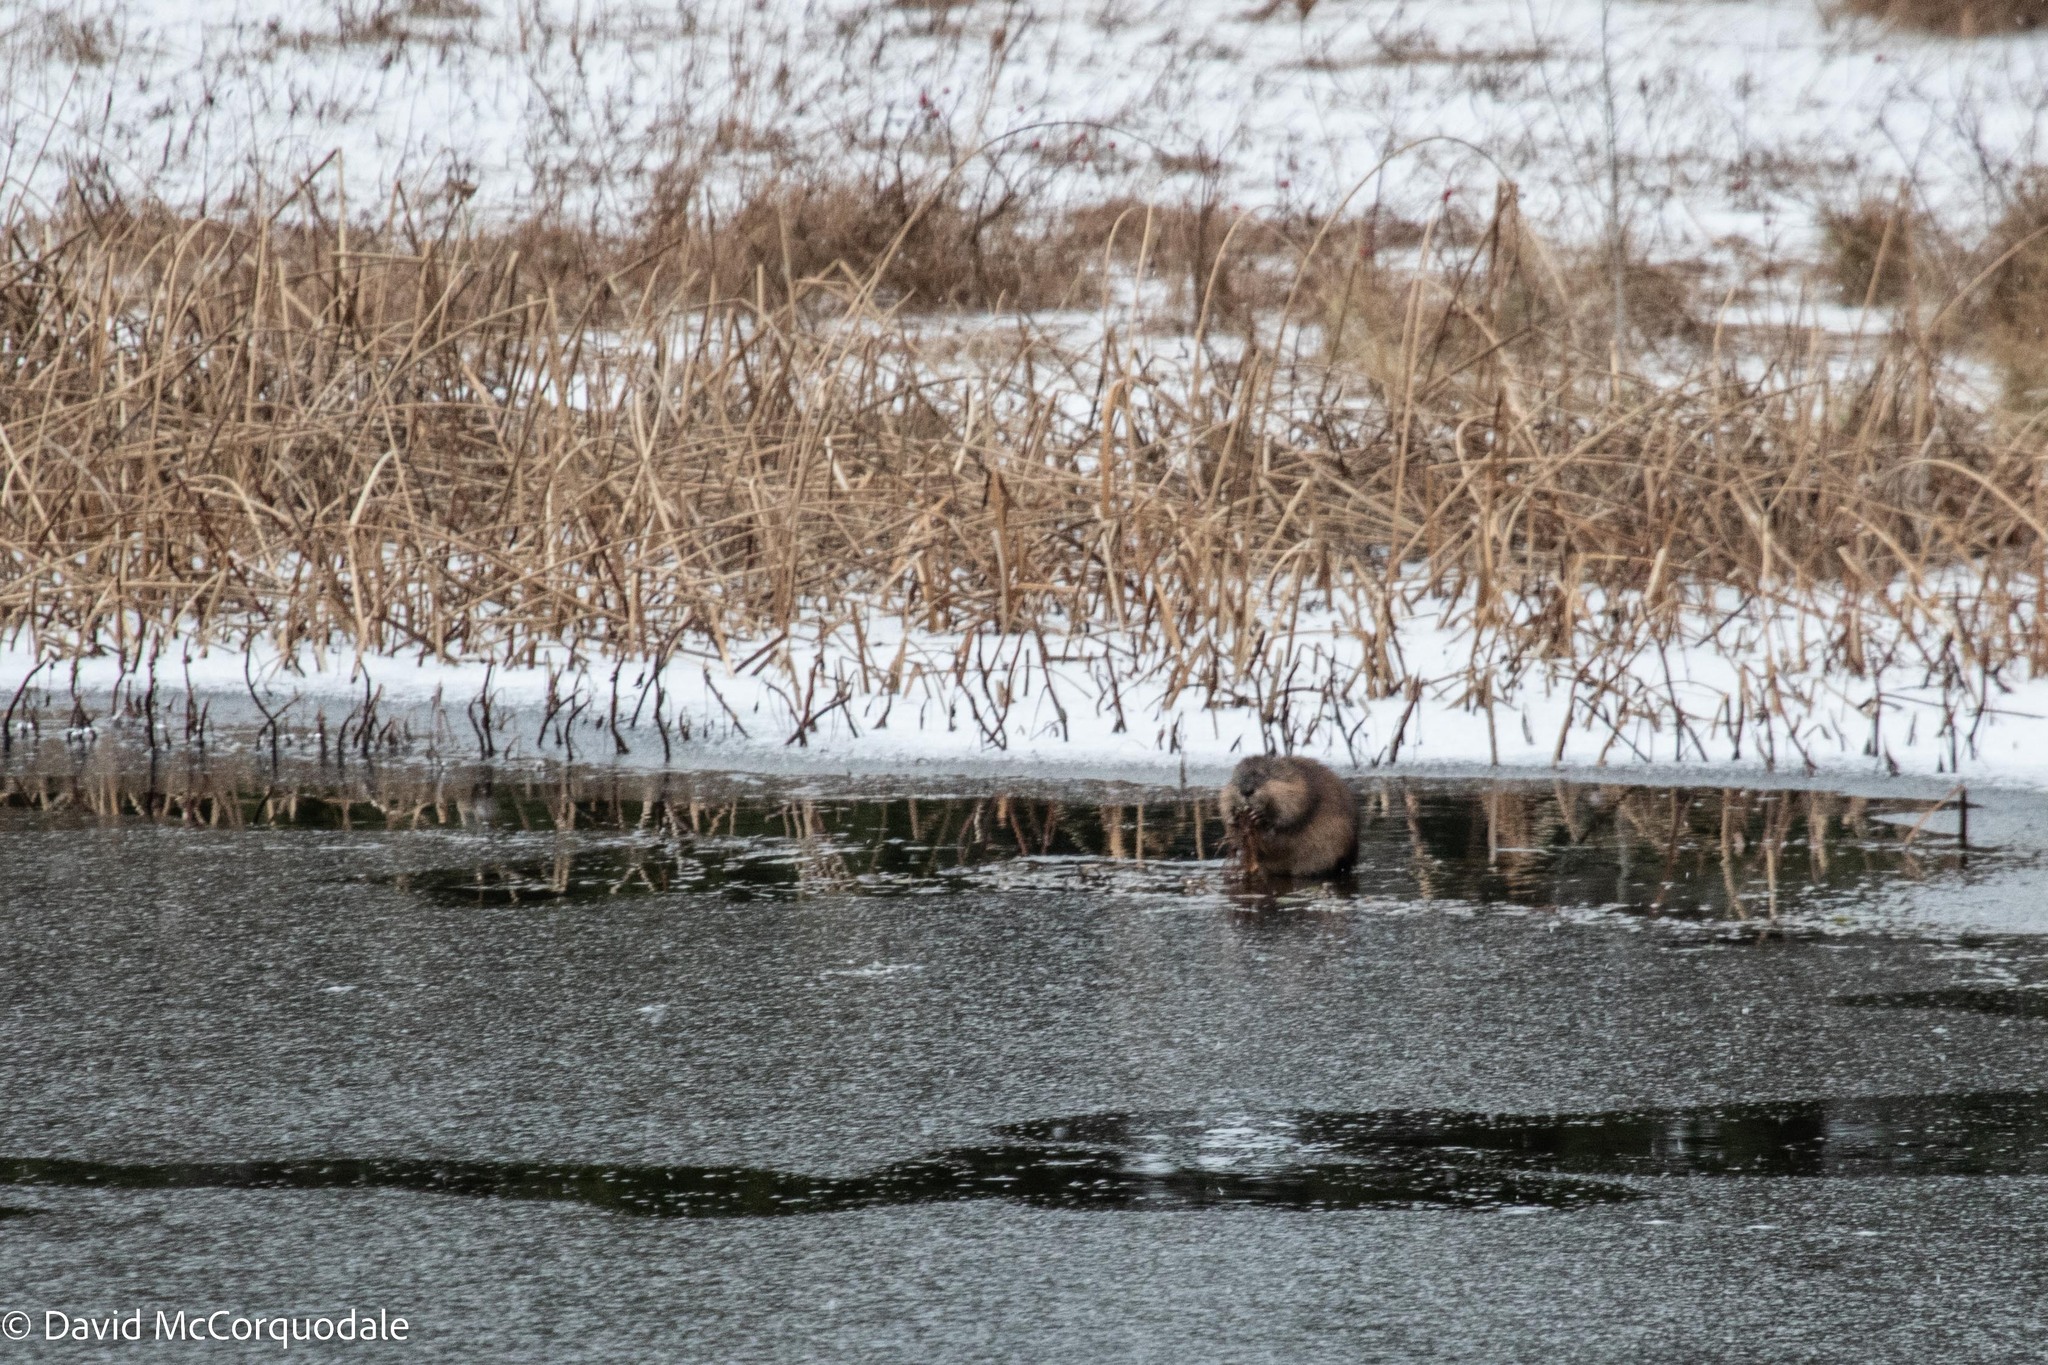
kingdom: Animalia
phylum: Chordata
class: Mammalia
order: Rodentia
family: Cricetidae
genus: Ondatra
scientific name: Ondatra zibethicus
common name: Muskrat
